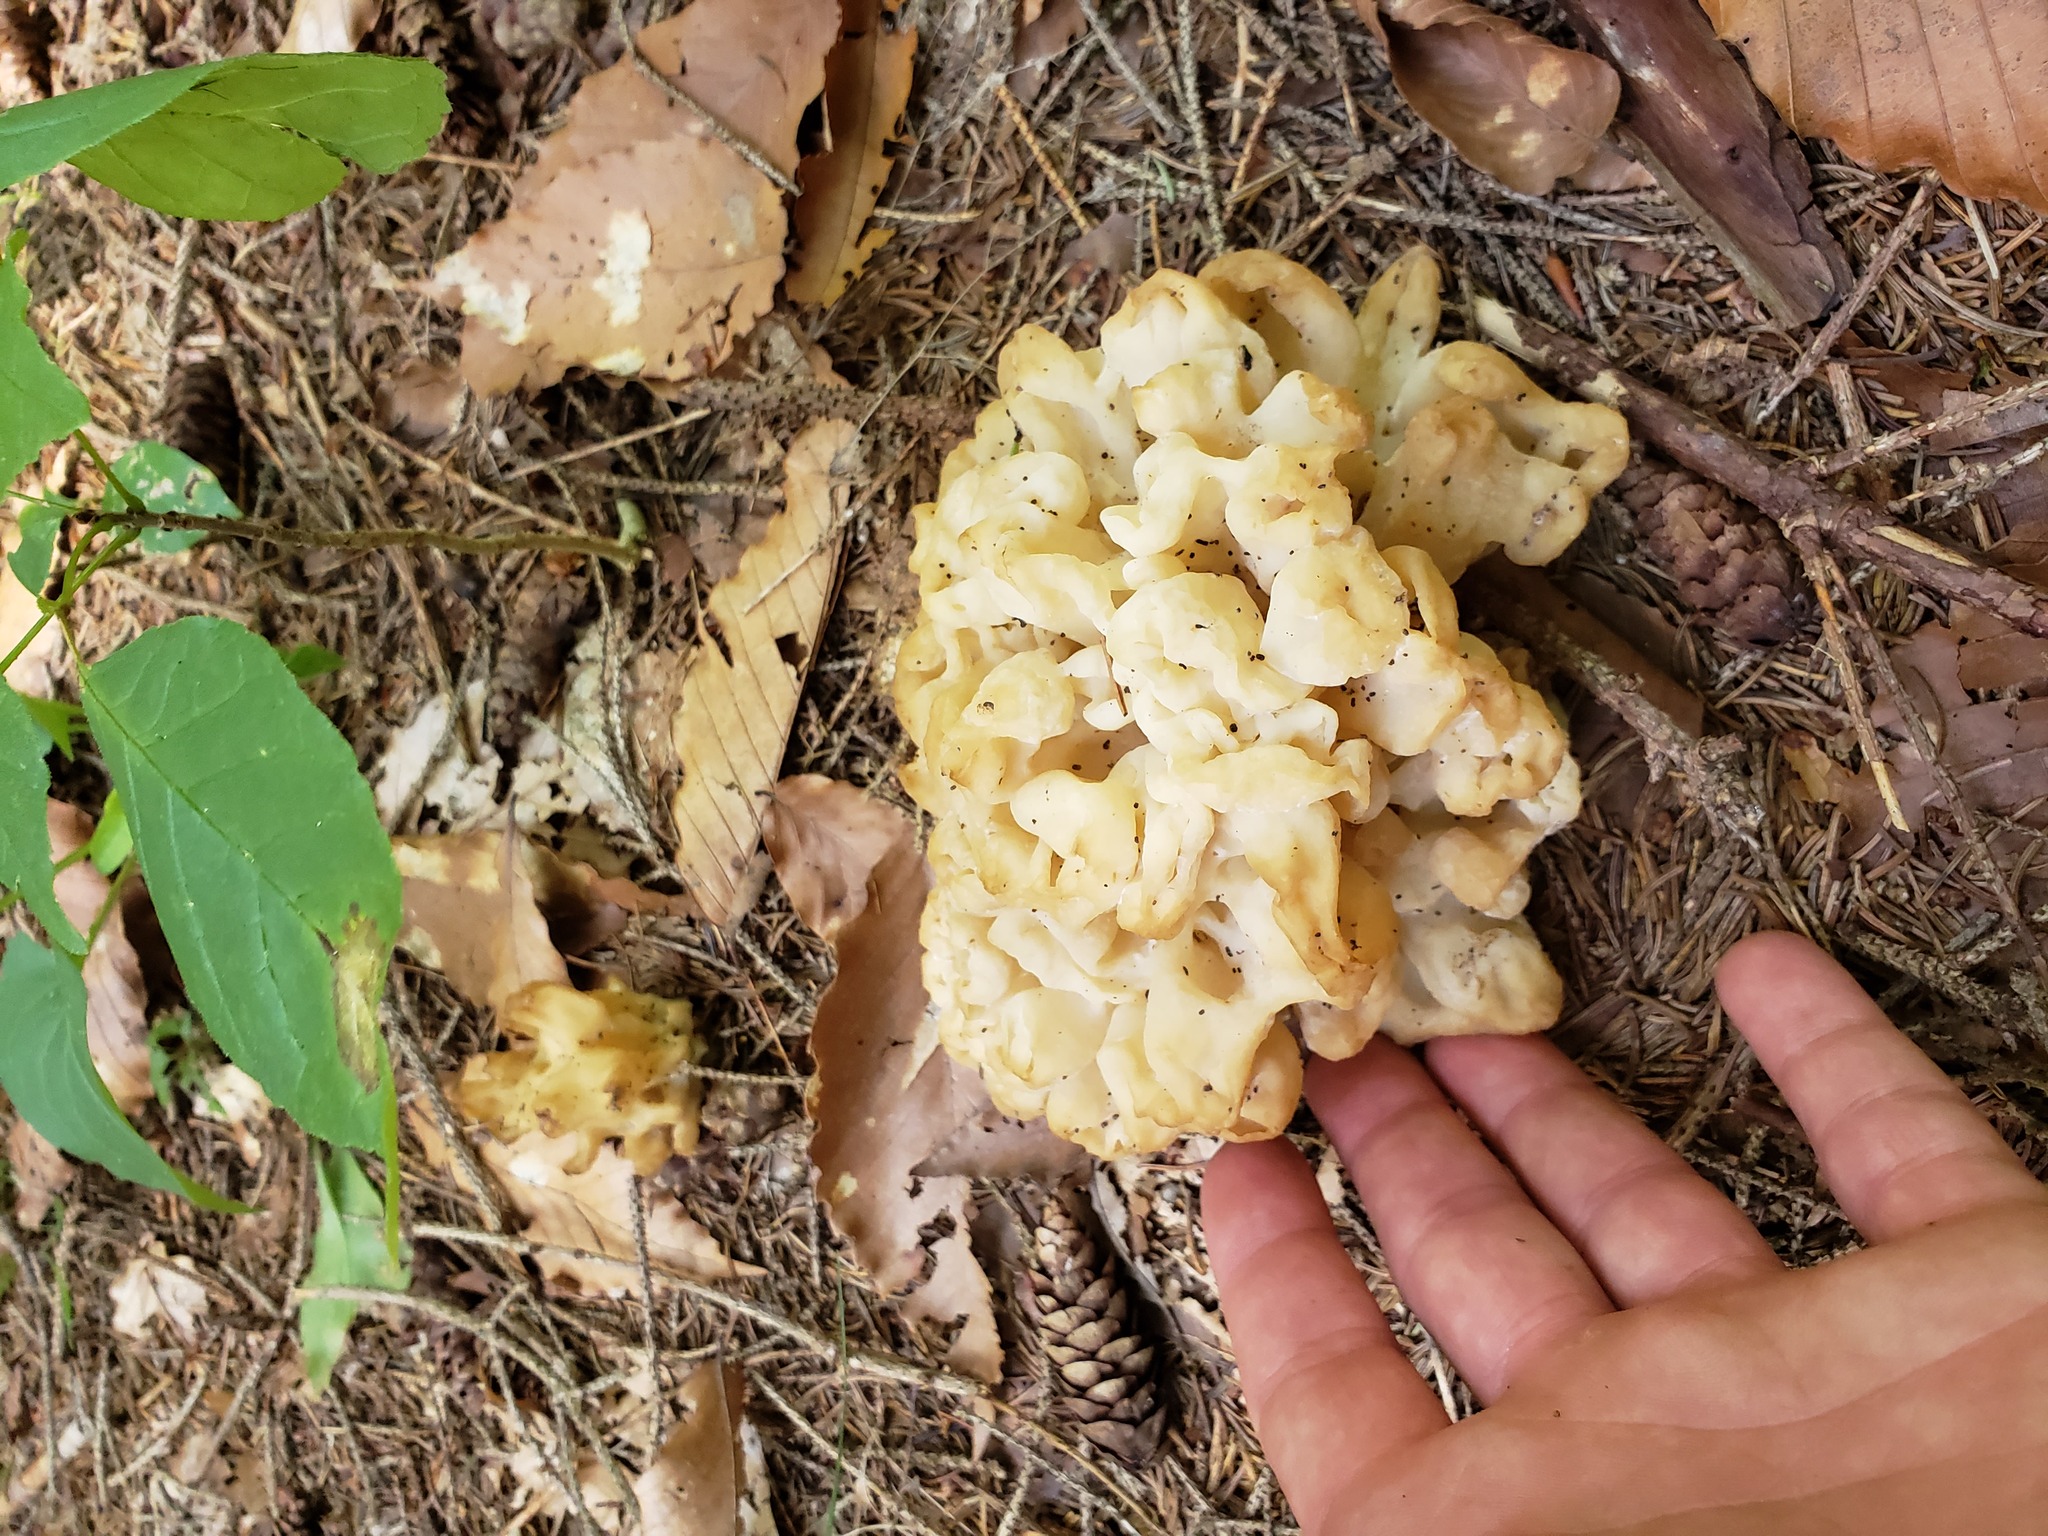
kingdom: Fungi
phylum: Basidiomycota
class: Agaricomycetes
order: Sebacinales
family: Sebacinaceae
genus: Sebacina
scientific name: Sebacina sparassoidea
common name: White coral jelly fungus
